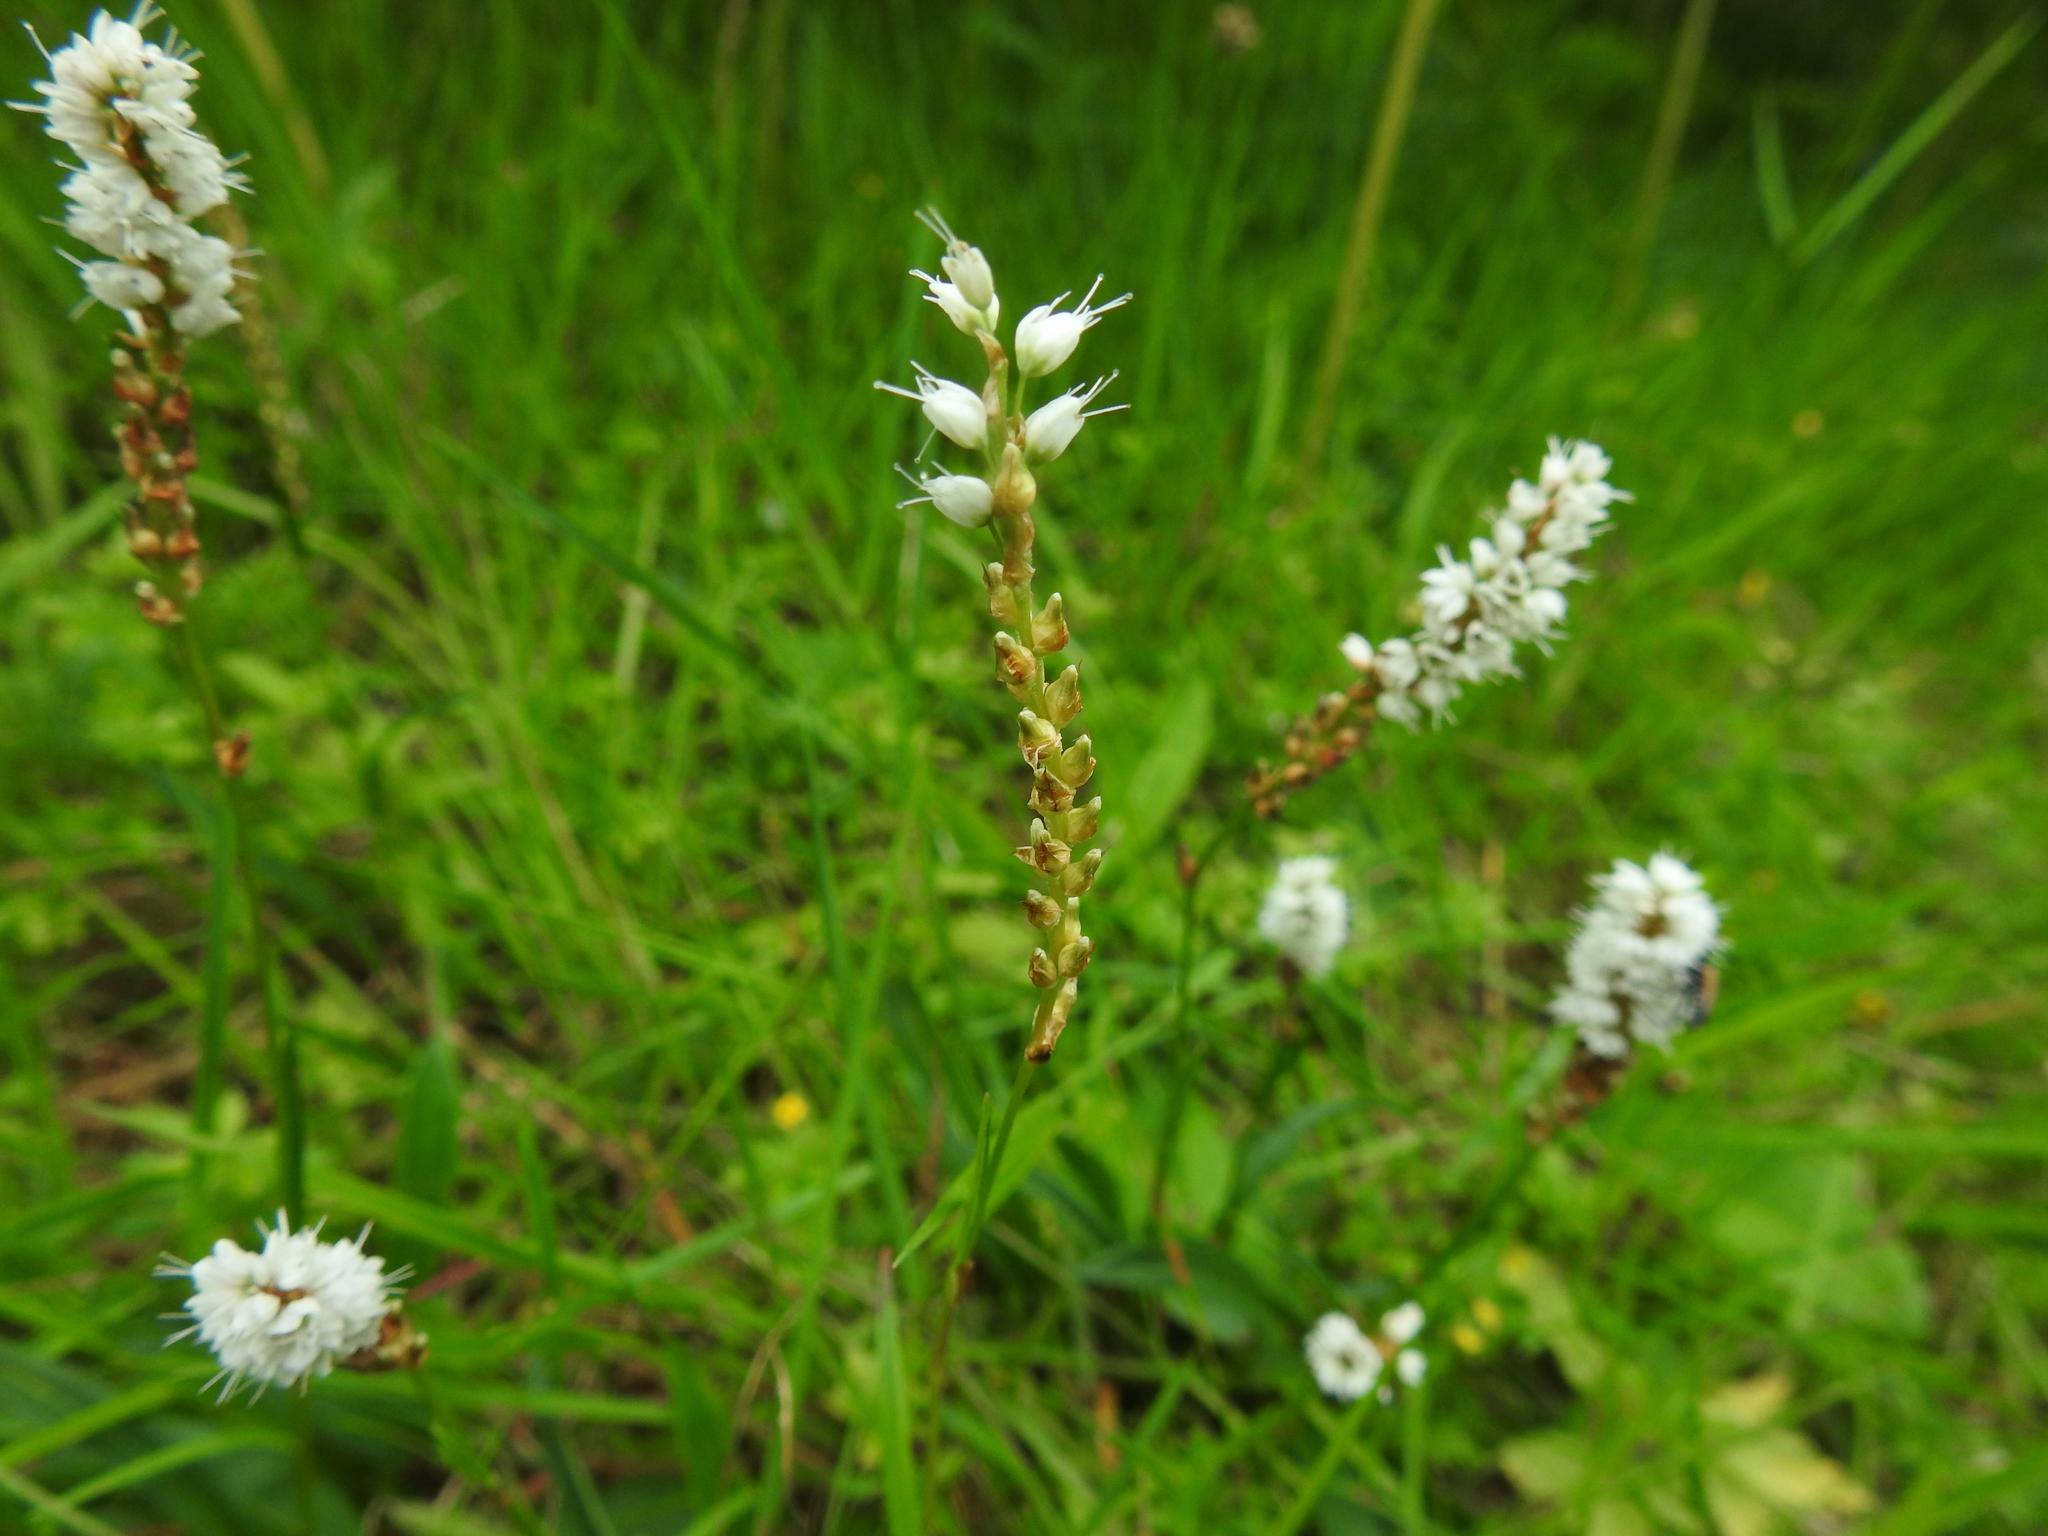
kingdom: Plantae
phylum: Tracheophyta
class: Magnoliopsida
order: Caryophyllales
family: Polygonaceae
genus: Bistorta
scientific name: Bistorta vivipara
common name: Alpine bistort
